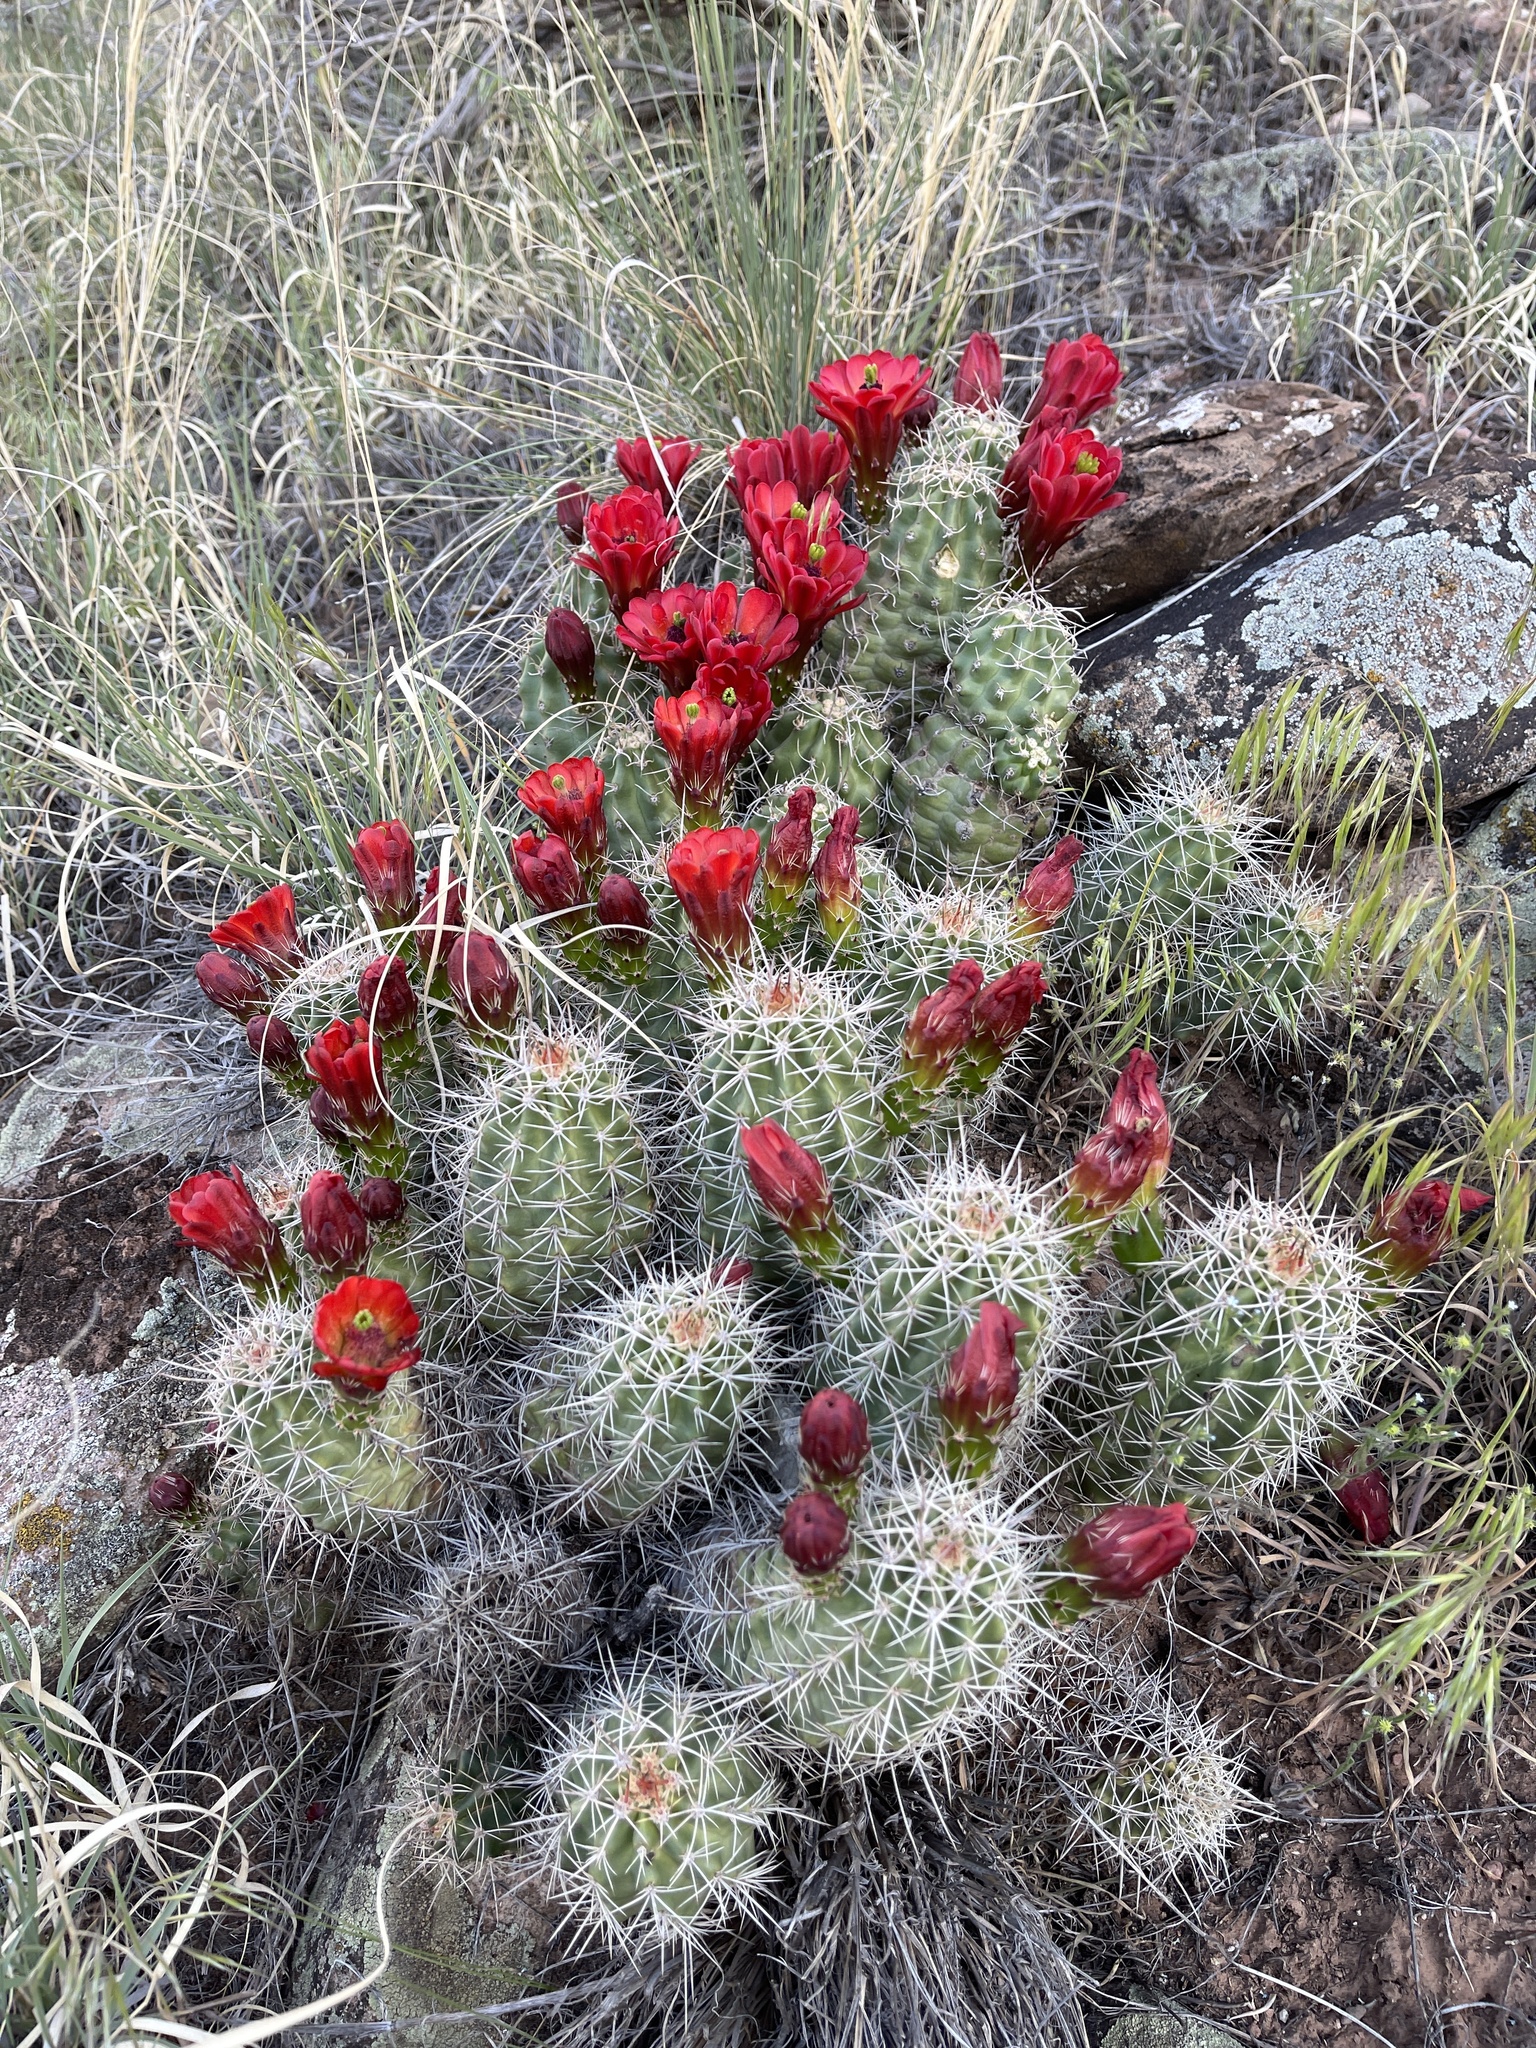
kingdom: Plantae
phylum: Tracheophyta
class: Magnoliopsida
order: Caryophyllales
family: Cactaceae
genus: Echinocereus
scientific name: Echinocereus triglochidiatus
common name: Claretcup hedgehog
